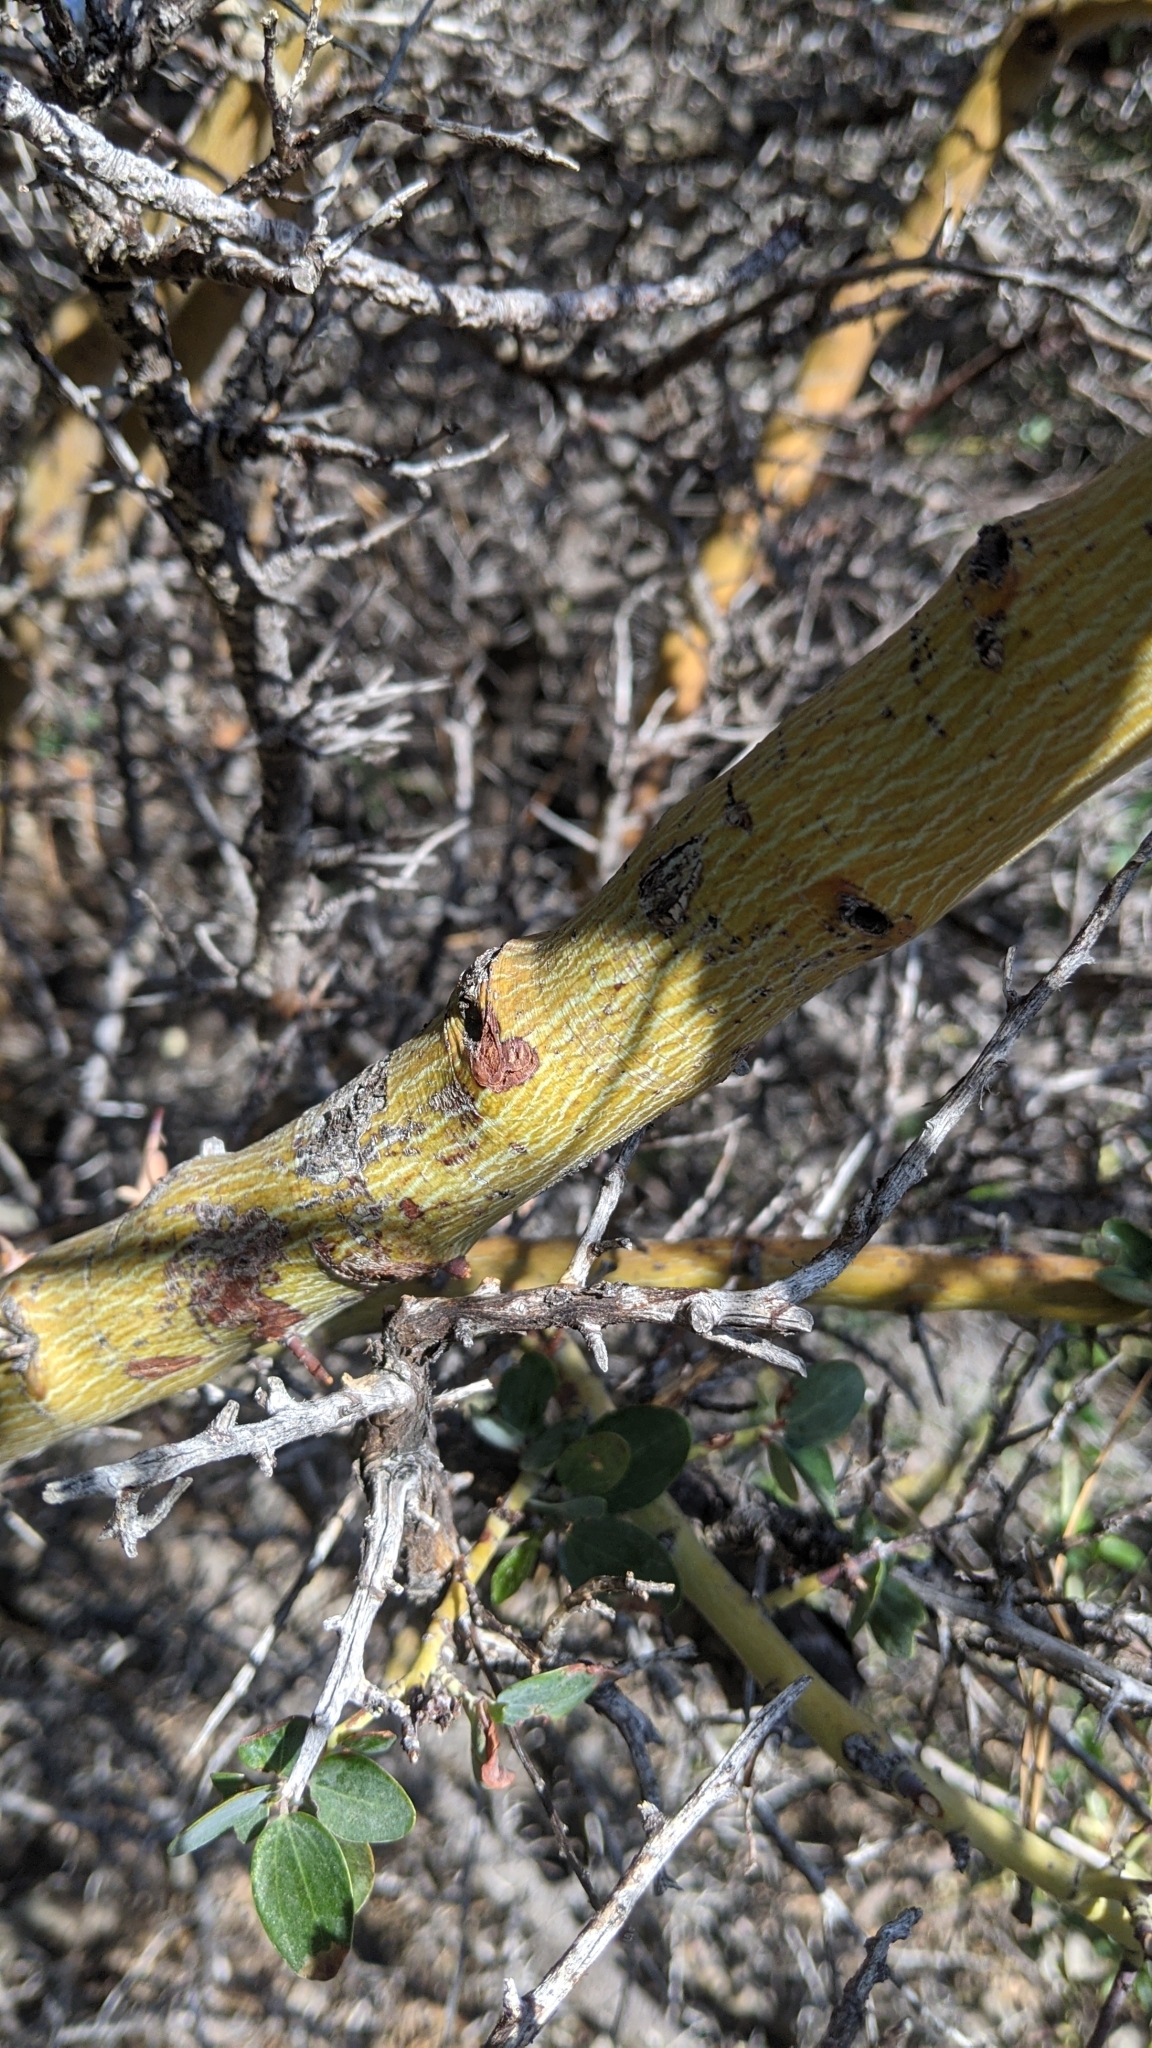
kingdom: Plantae
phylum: Tracheophyta
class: Magnoliopsida
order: Rosales
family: Rhamnaceae
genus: Ceanothus
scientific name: Ceanothus leucodermis
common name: Chaparral whitethorn
